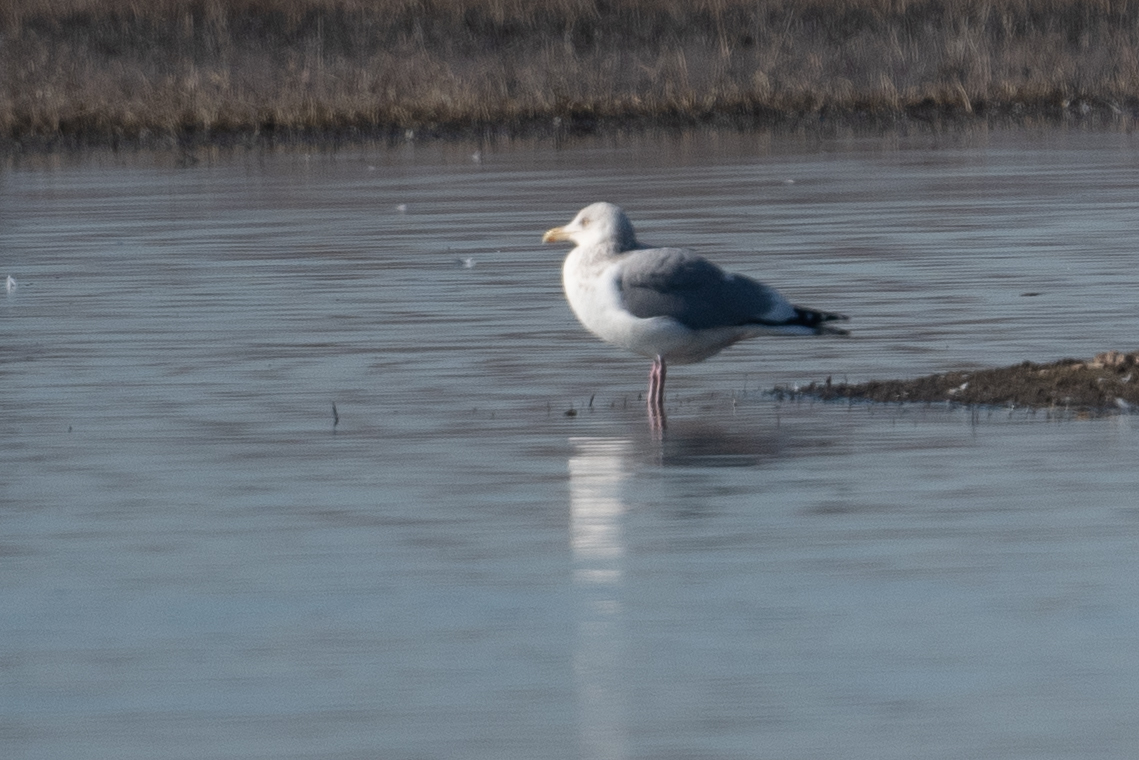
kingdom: Animalia
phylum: Chordata
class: Aves
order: Charadriiformes
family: Laridae
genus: Larus
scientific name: Larus argentatus
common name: Herring gull
